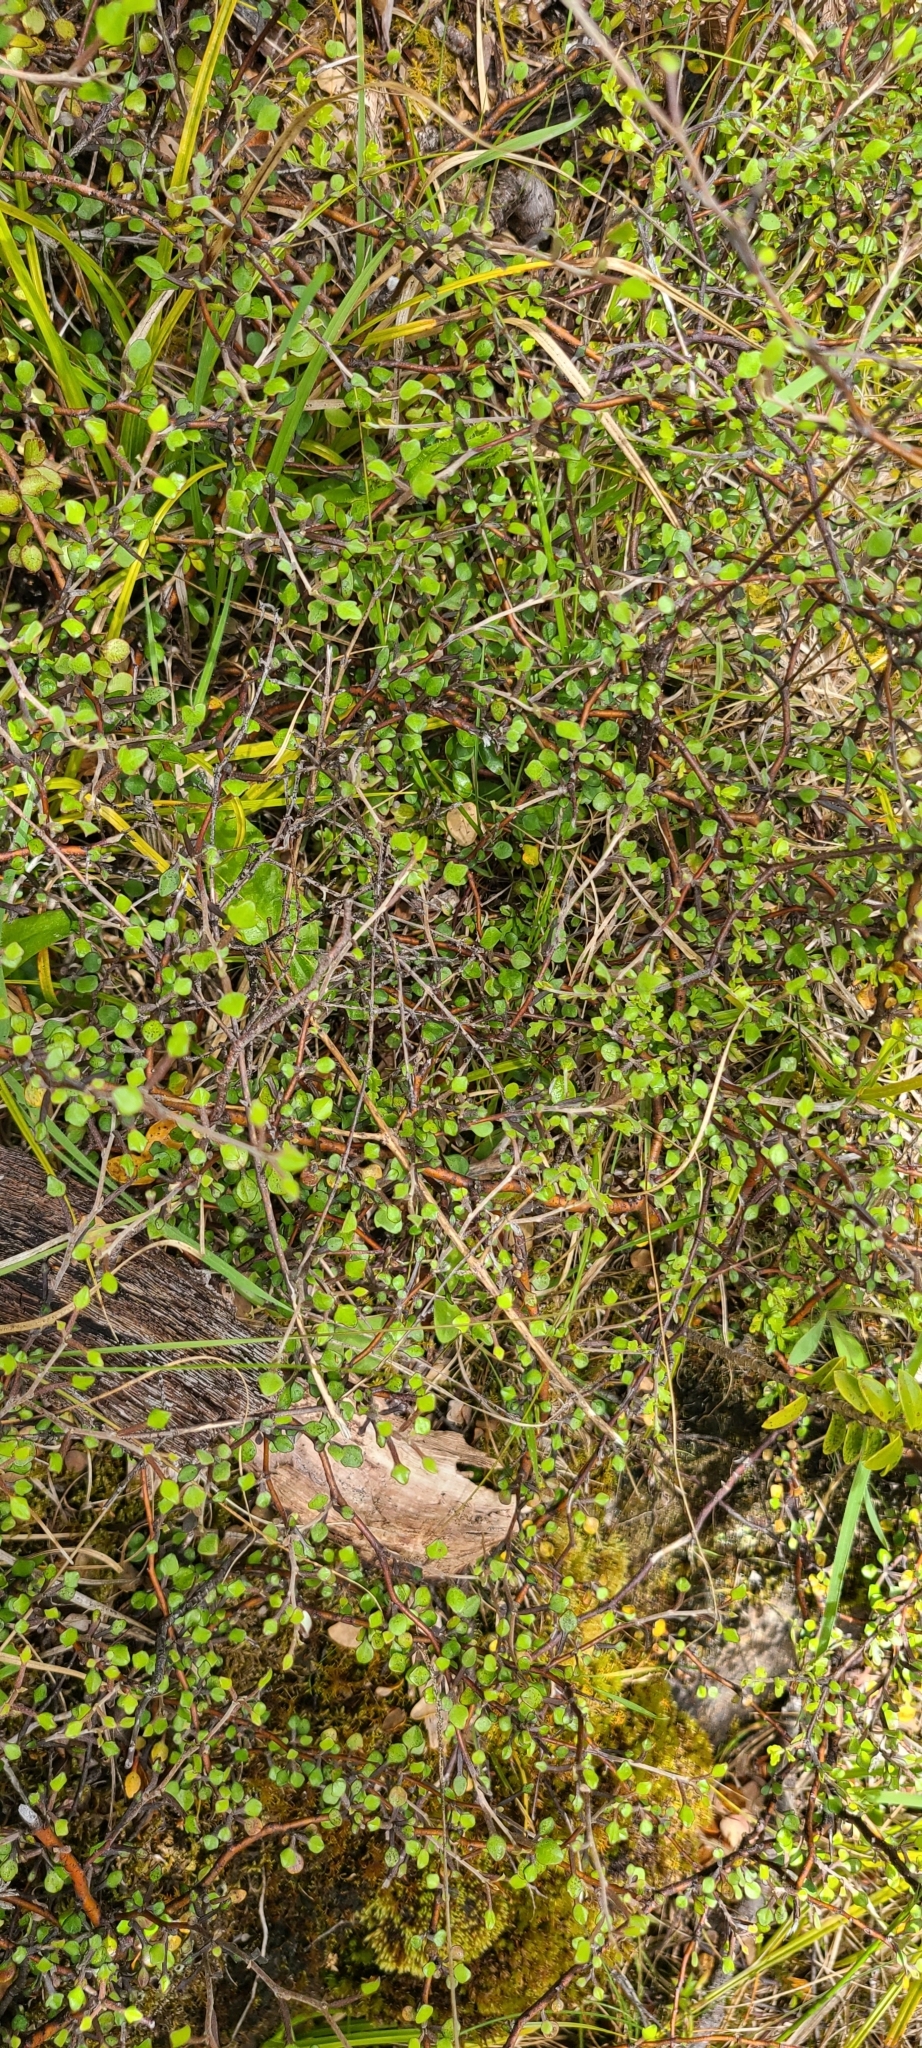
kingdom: Plantae
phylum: Tracheophyta
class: Magnoliopsida
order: Asterales
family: Argophyllaceae
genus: Corokia
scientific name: Corokia cotoneaster
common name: Wire nettingbush
